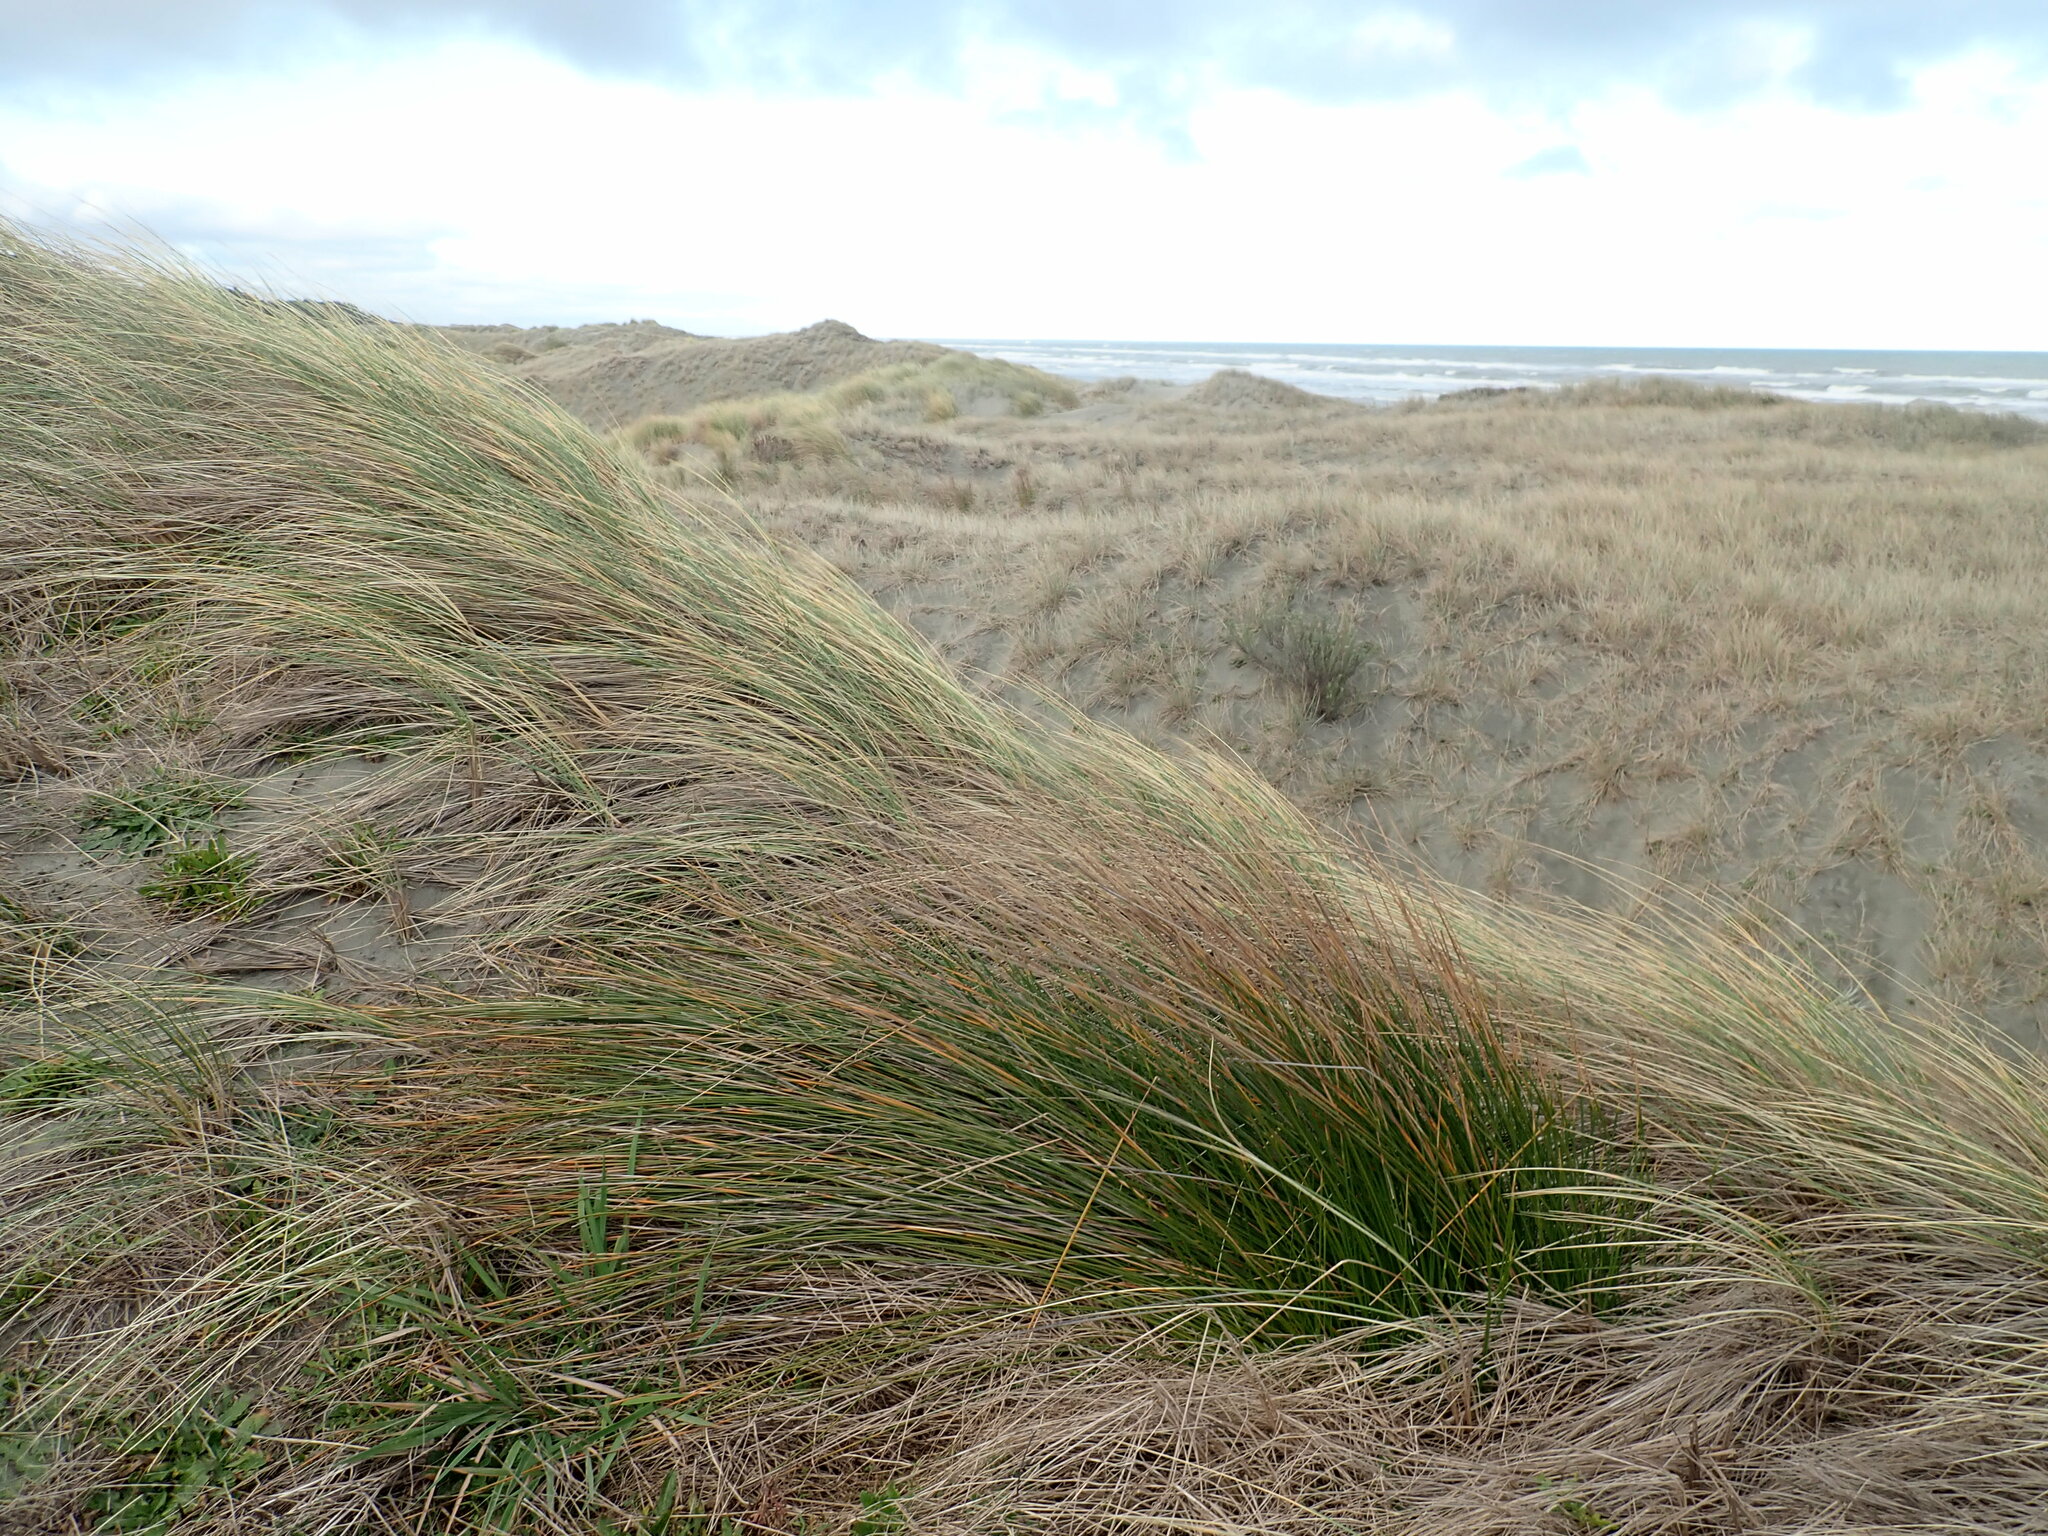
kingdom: Plantae
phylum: Tracheophyta
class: Liliopsida
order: Poales
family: Cyperaceae
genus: Ficinia
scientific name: Ficinia nodosa
